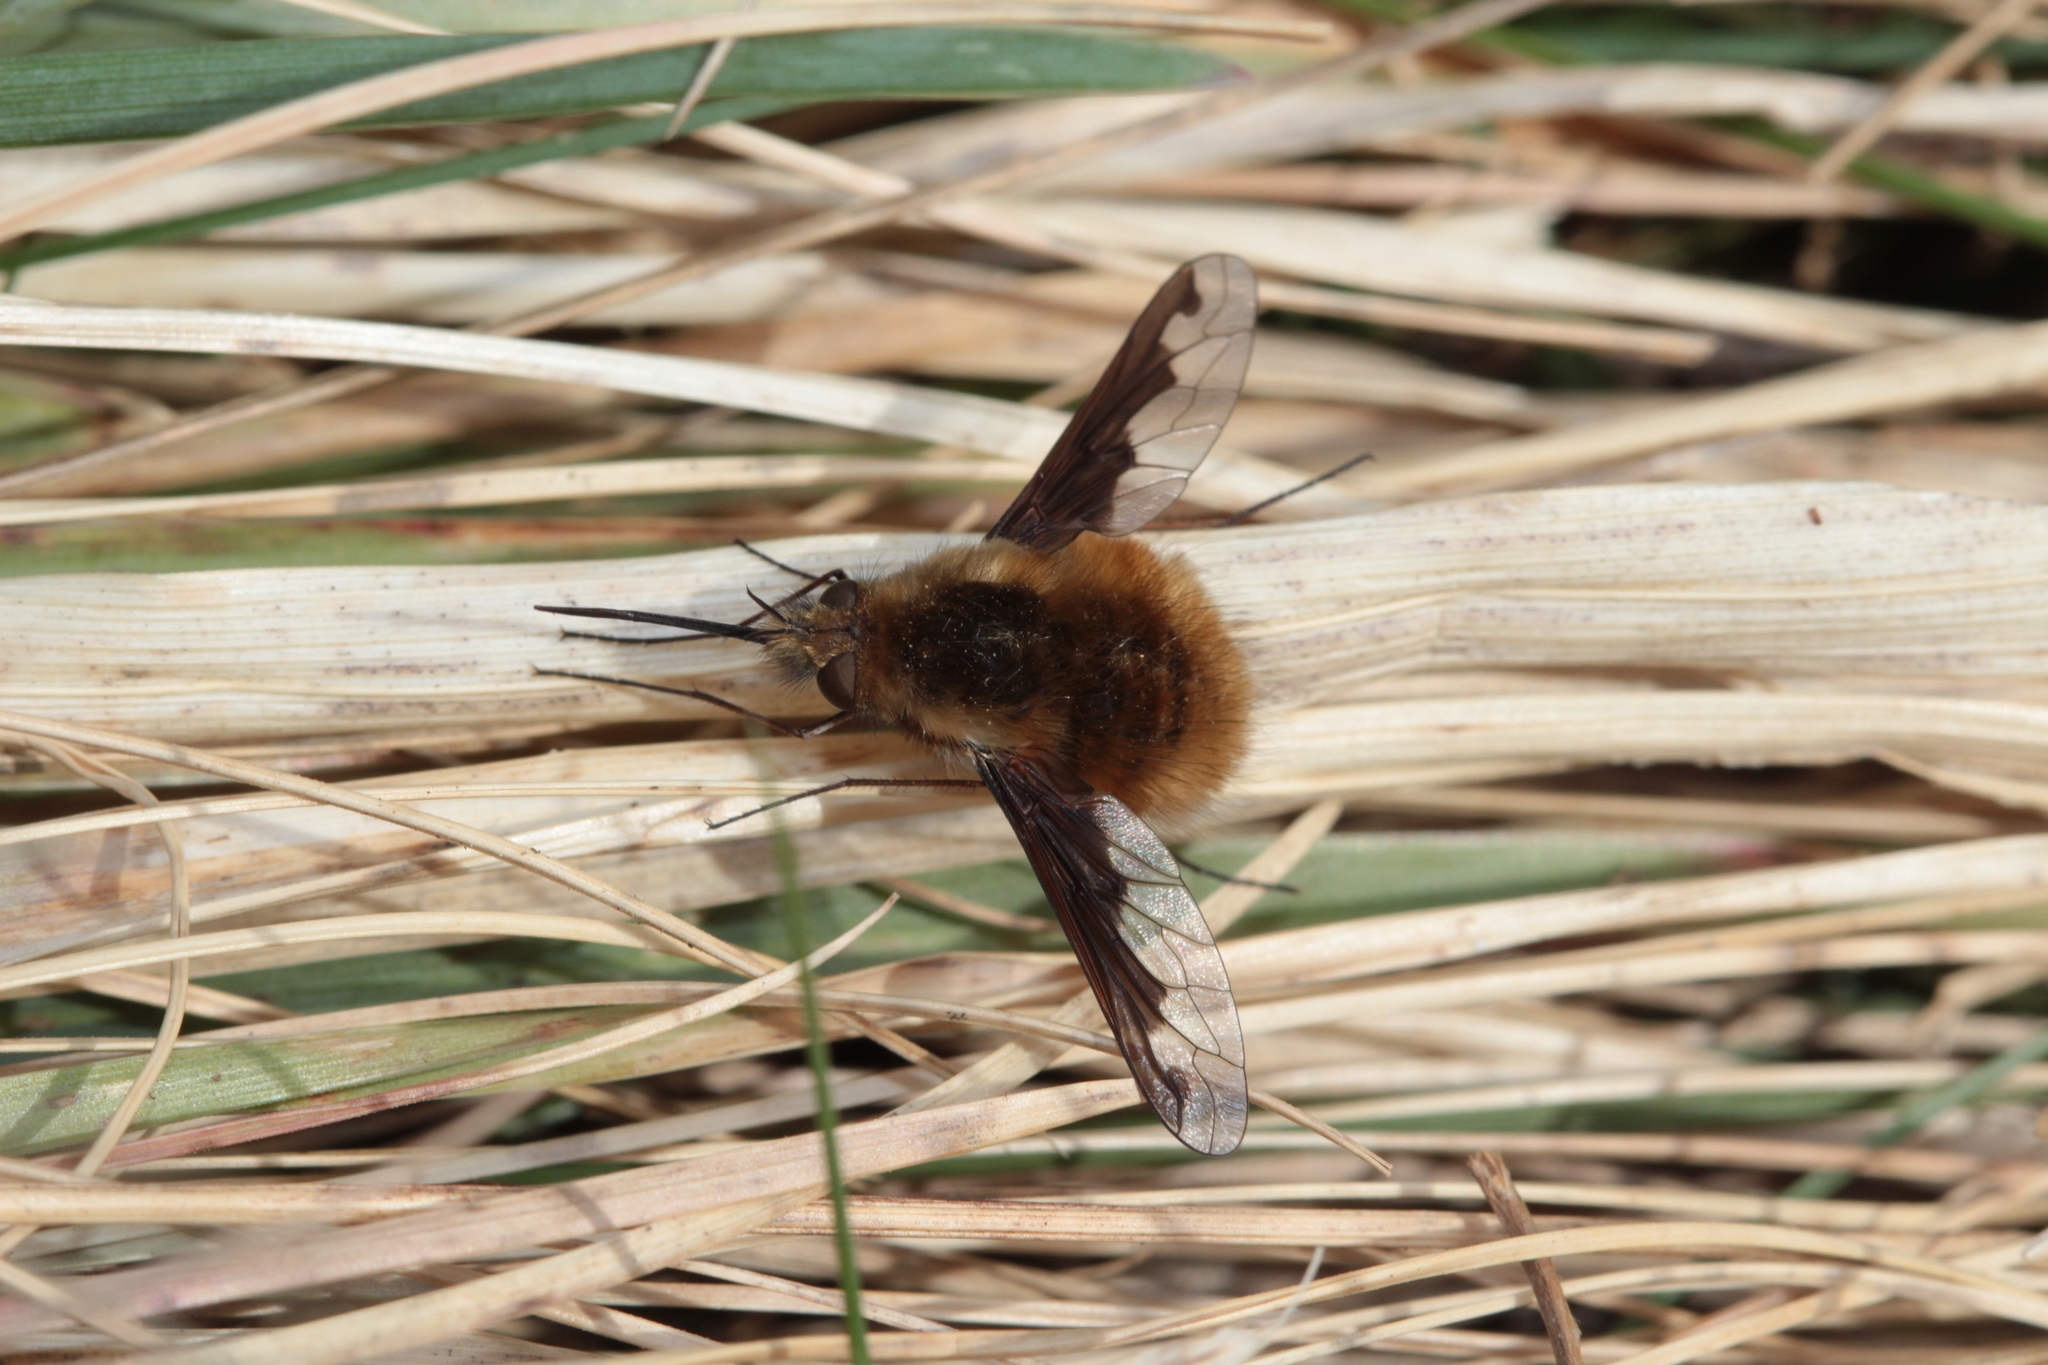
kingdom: Animalia
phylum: Arthropoda
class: Insecta
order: Diptera
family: Bombyliidae
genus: Bombylius
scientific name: Bombylius major
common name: Bee fly
